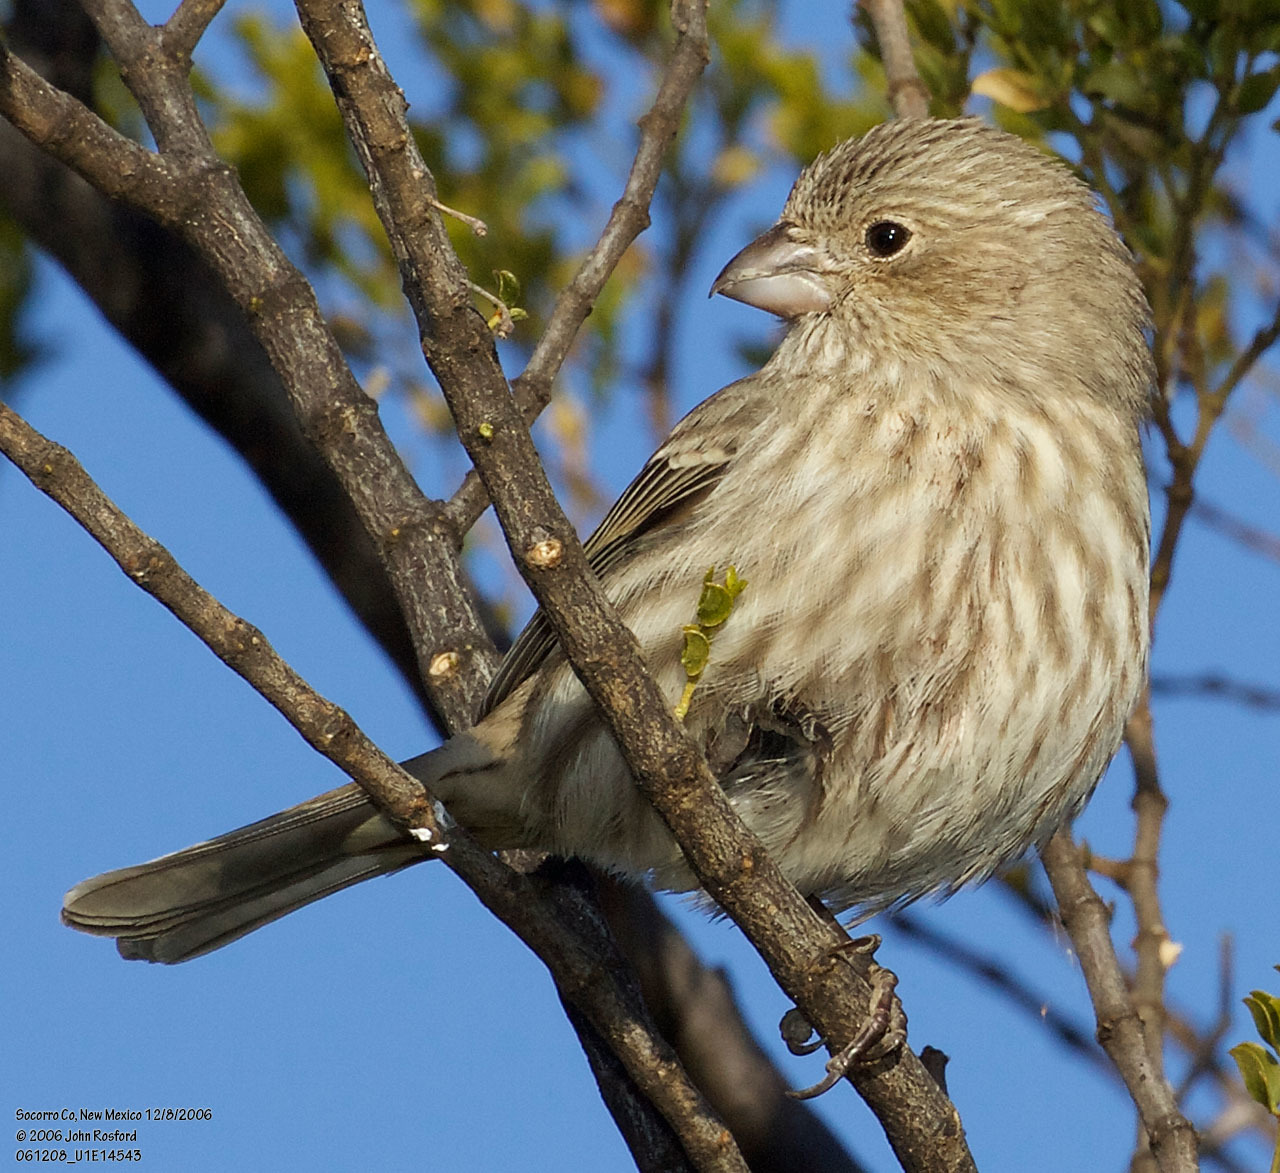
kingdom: Animalia
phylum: Chordata
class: Aves
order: Passeriformes
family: Fringillidae
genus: Haemorhous
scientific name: Haemorhous mexicanus
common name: House finch
